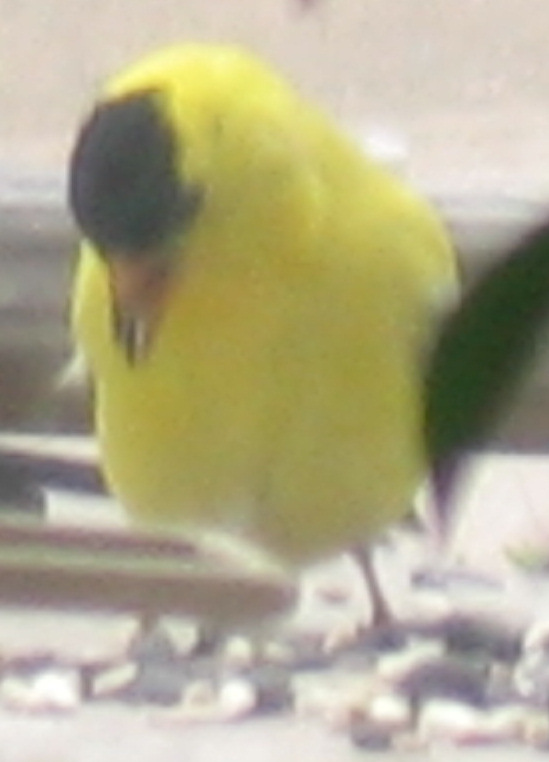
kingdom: Animalia
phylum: Chordata
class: Aves
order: Passeriformes
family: Fringillidae
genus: Spinus
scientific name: Spinus tristis
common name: American goldfinch
